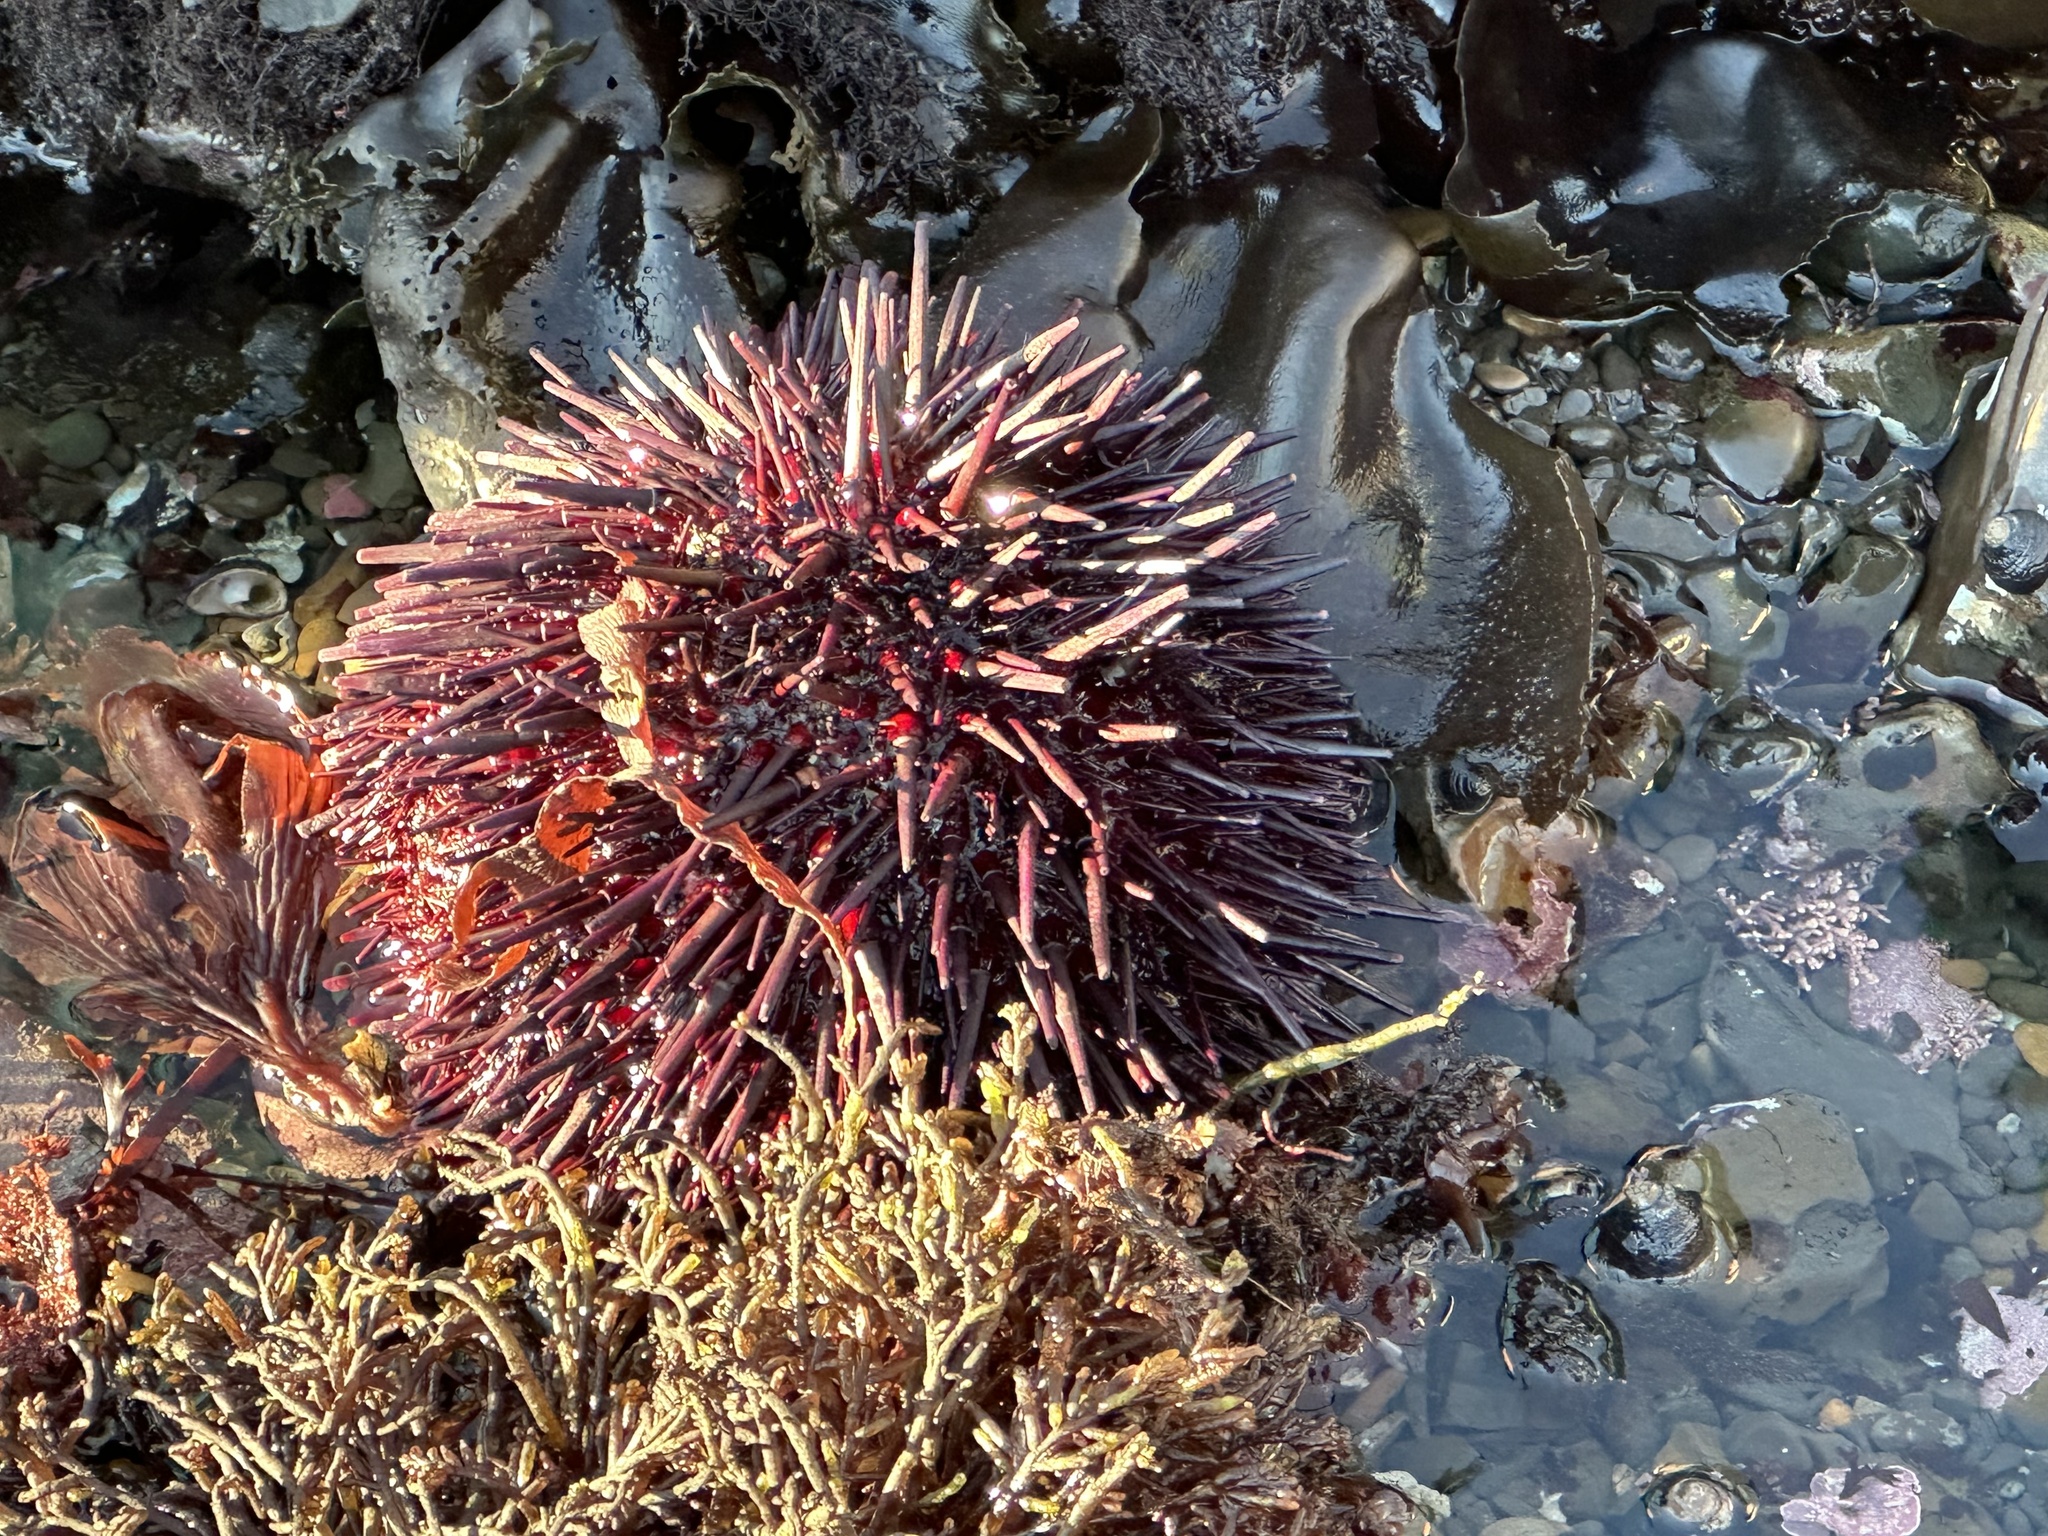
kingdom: Animalia
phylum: Echinodermata
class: Echinoidea
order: Camarodonta
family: Strongylocentrotidae
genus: Mesocentrotus
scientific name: Mesocentrotus franciscanus
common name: Red sea urchin
